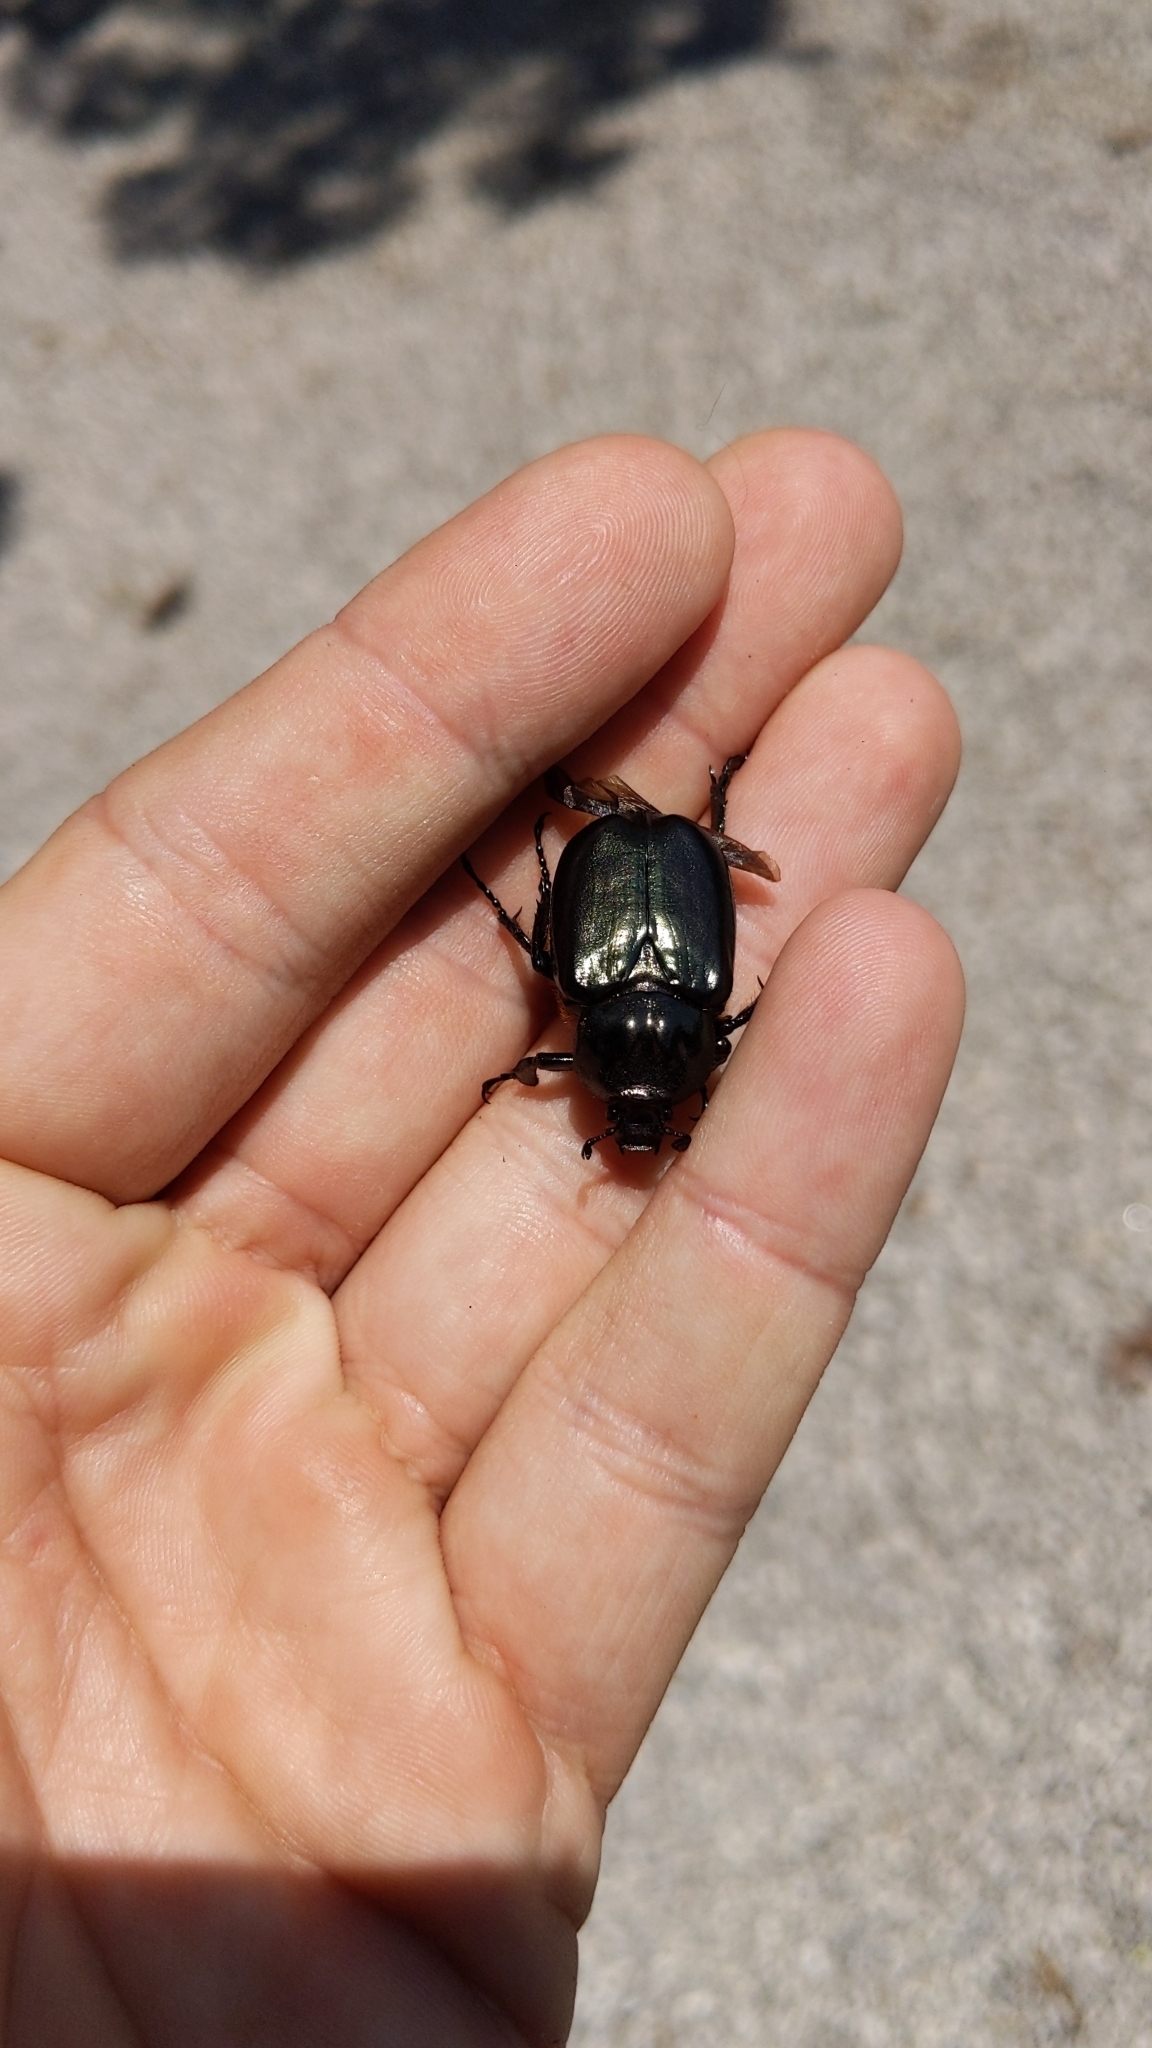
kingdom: Animalia
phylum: Arthropoda
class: Insecta
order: Coleoptera
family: Scarabaeidae
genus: Osmoderma
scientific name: Osmoderma eremicola
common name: Hermit flower beetle
